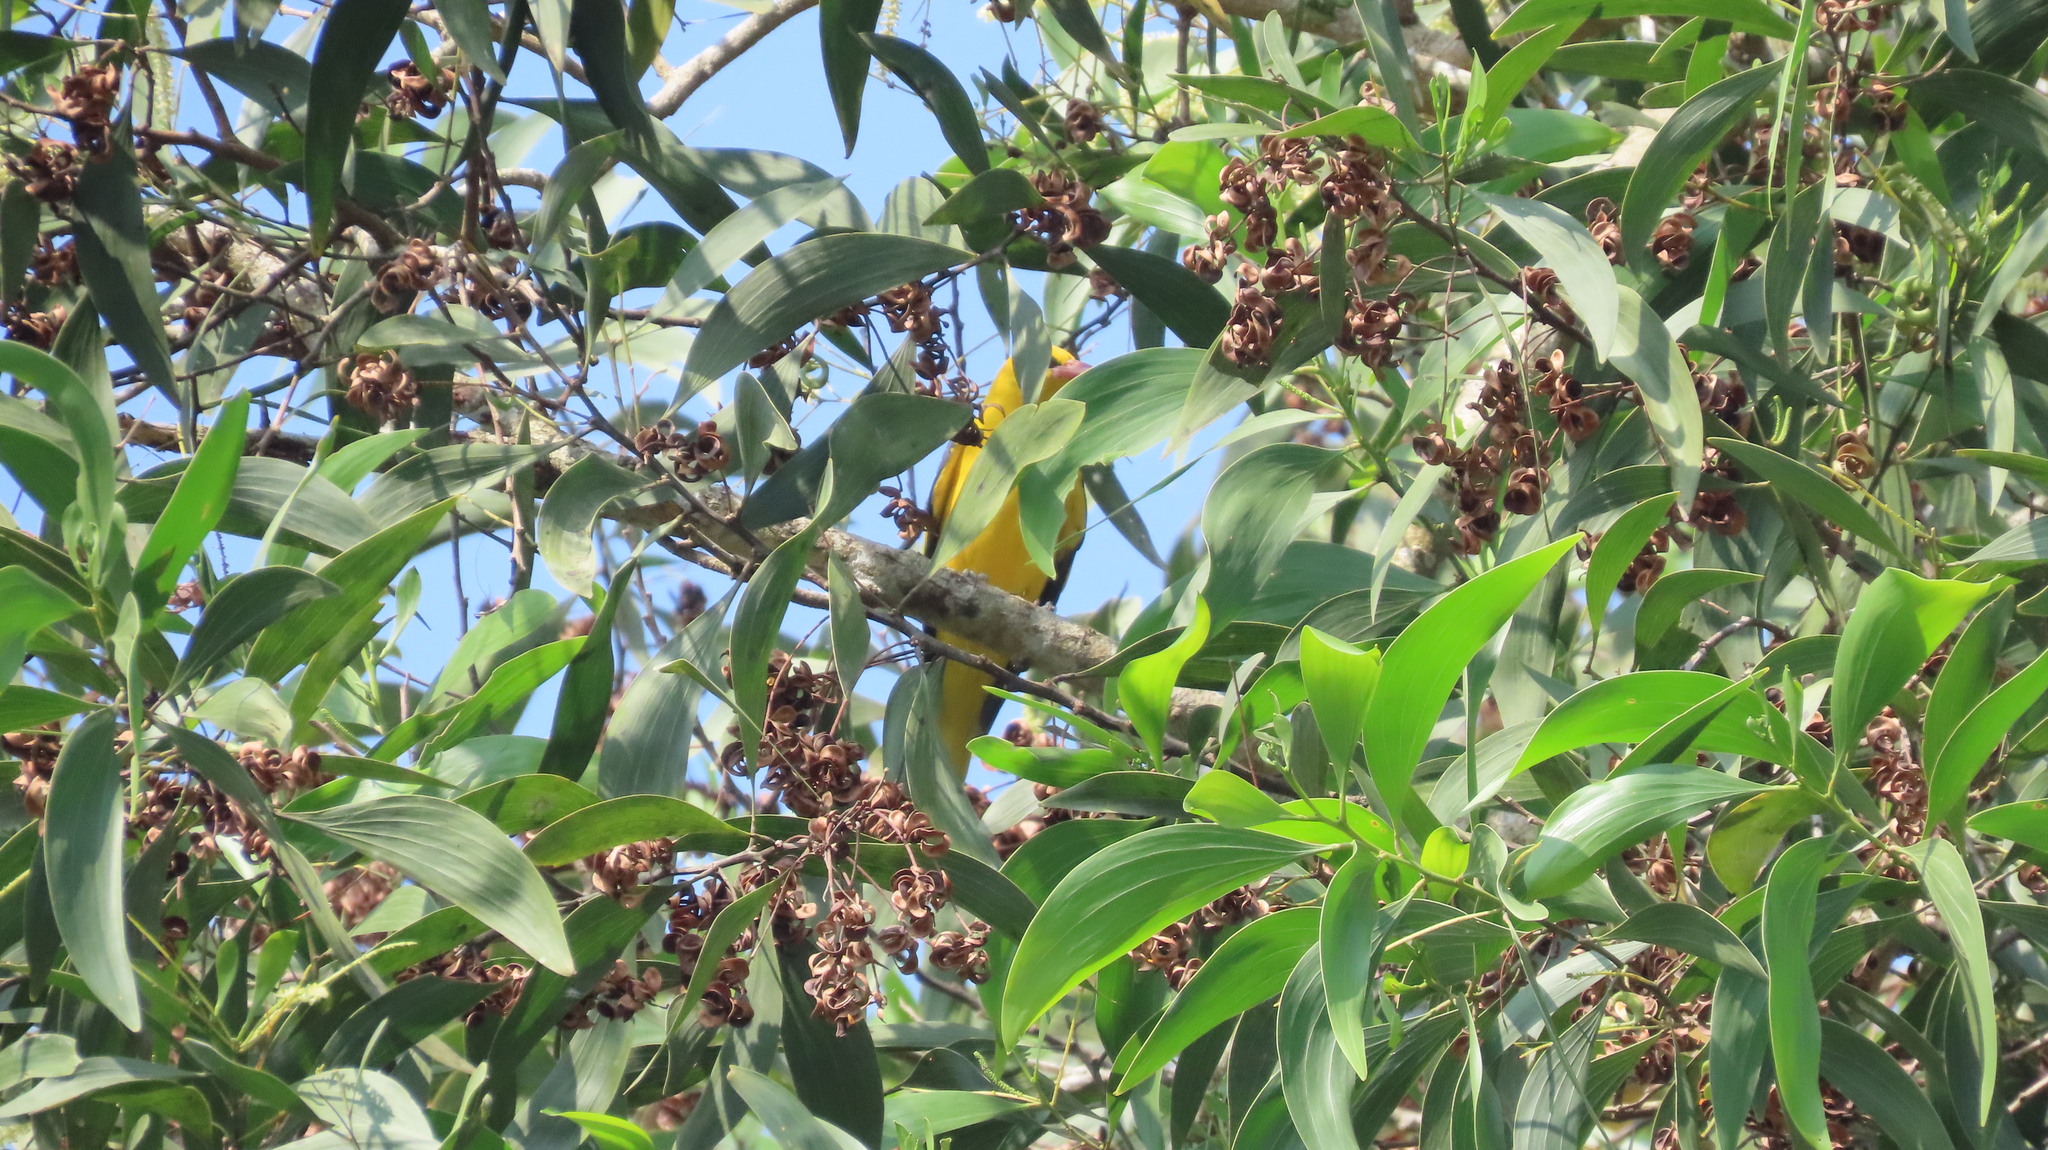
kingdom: Animalia
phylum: Chordata
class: Aves
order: Passeriformes
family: Oriolidae
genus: Oriolus
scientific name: Oriolus kundoo
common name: Indian golden oriole
